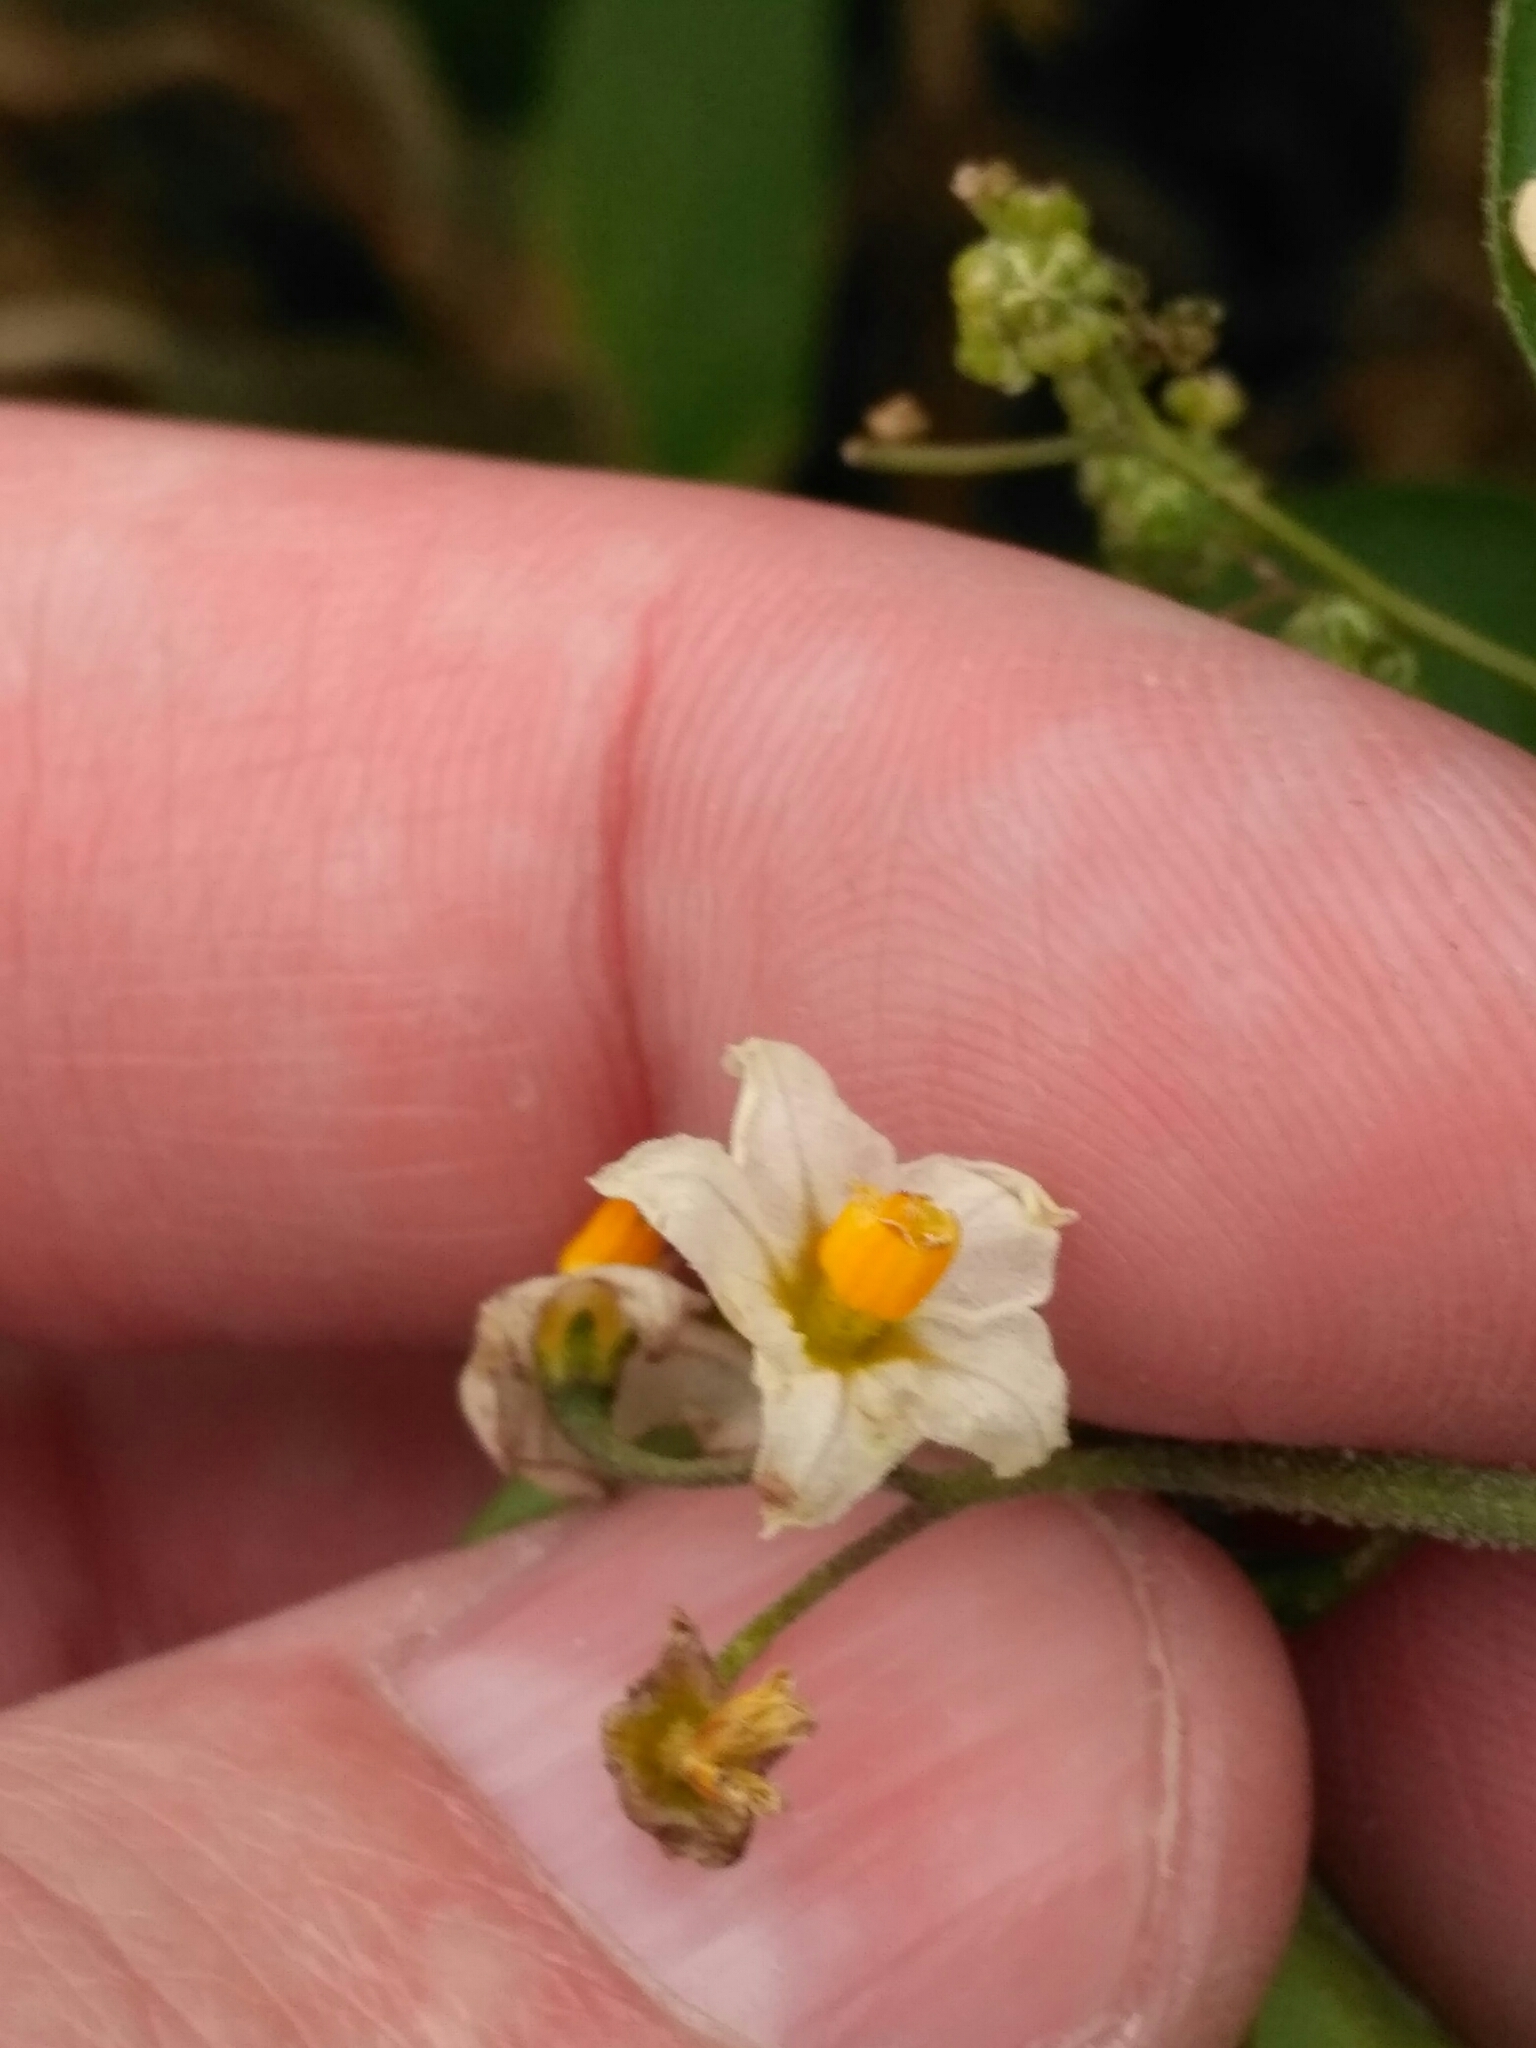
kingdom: Plantae
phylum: Tracheophyta
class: Magnoliopsida
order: Solanales
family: Solanaceae
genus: Solanum
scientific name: Solanum nigrum
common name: Black nightshade
